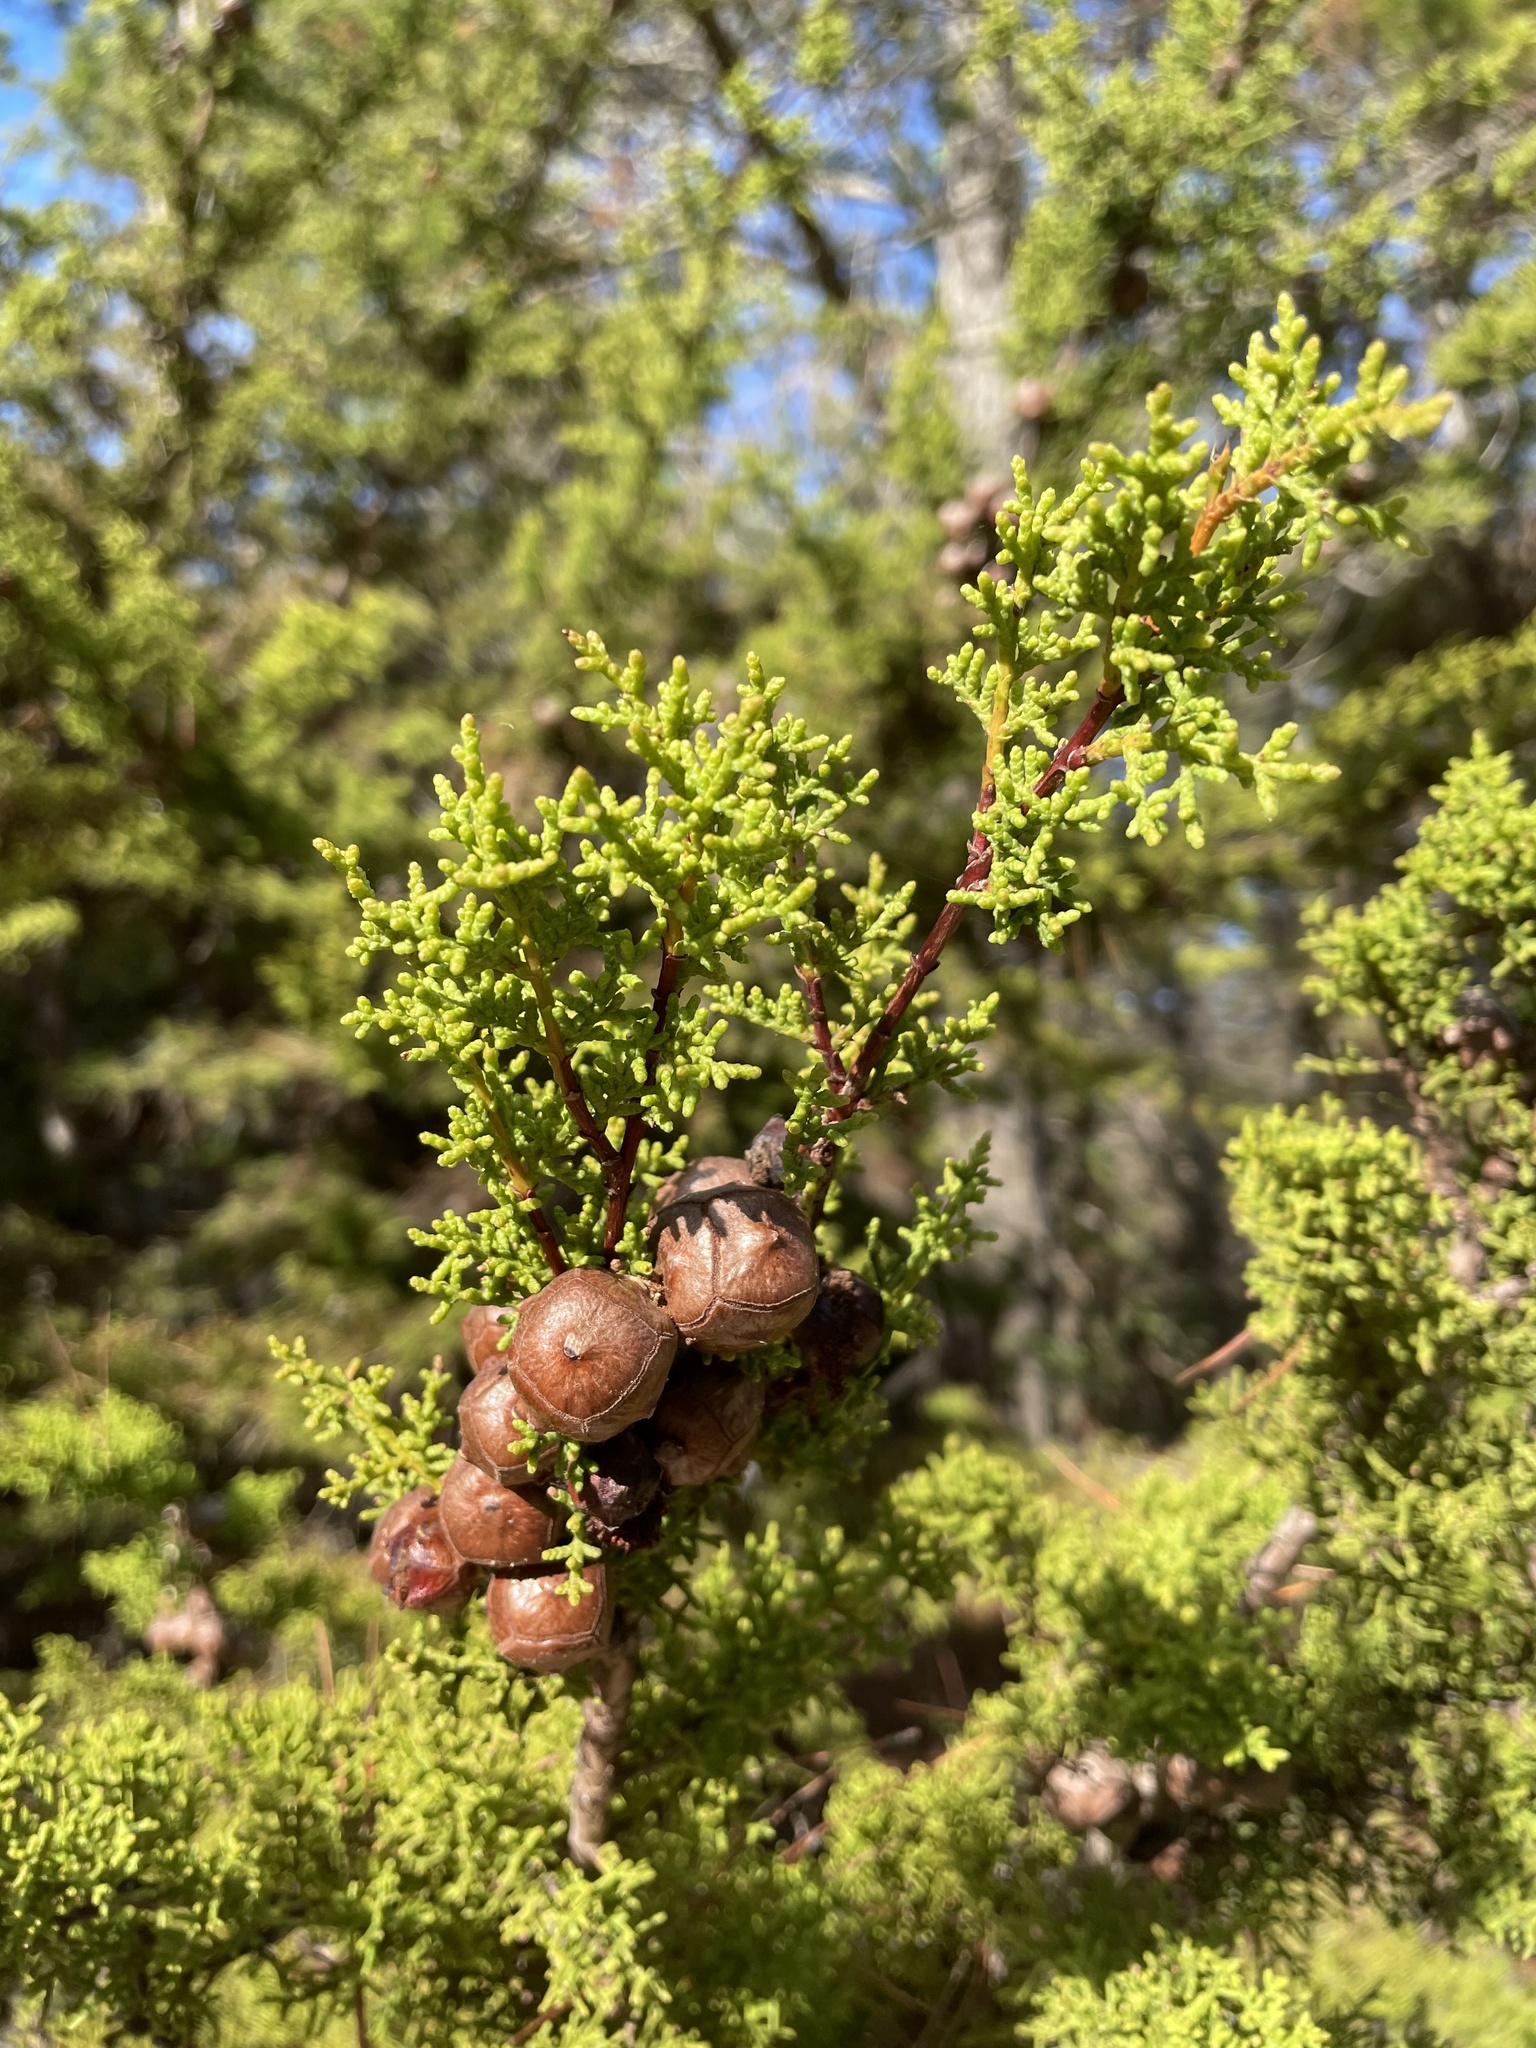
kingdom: Plantae
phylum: Tracheophyta
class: Pinopsida
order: Pinales
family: Cupressaceae
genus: Cupressus
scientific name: Cupressus goveniana
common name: Gowen cypress
